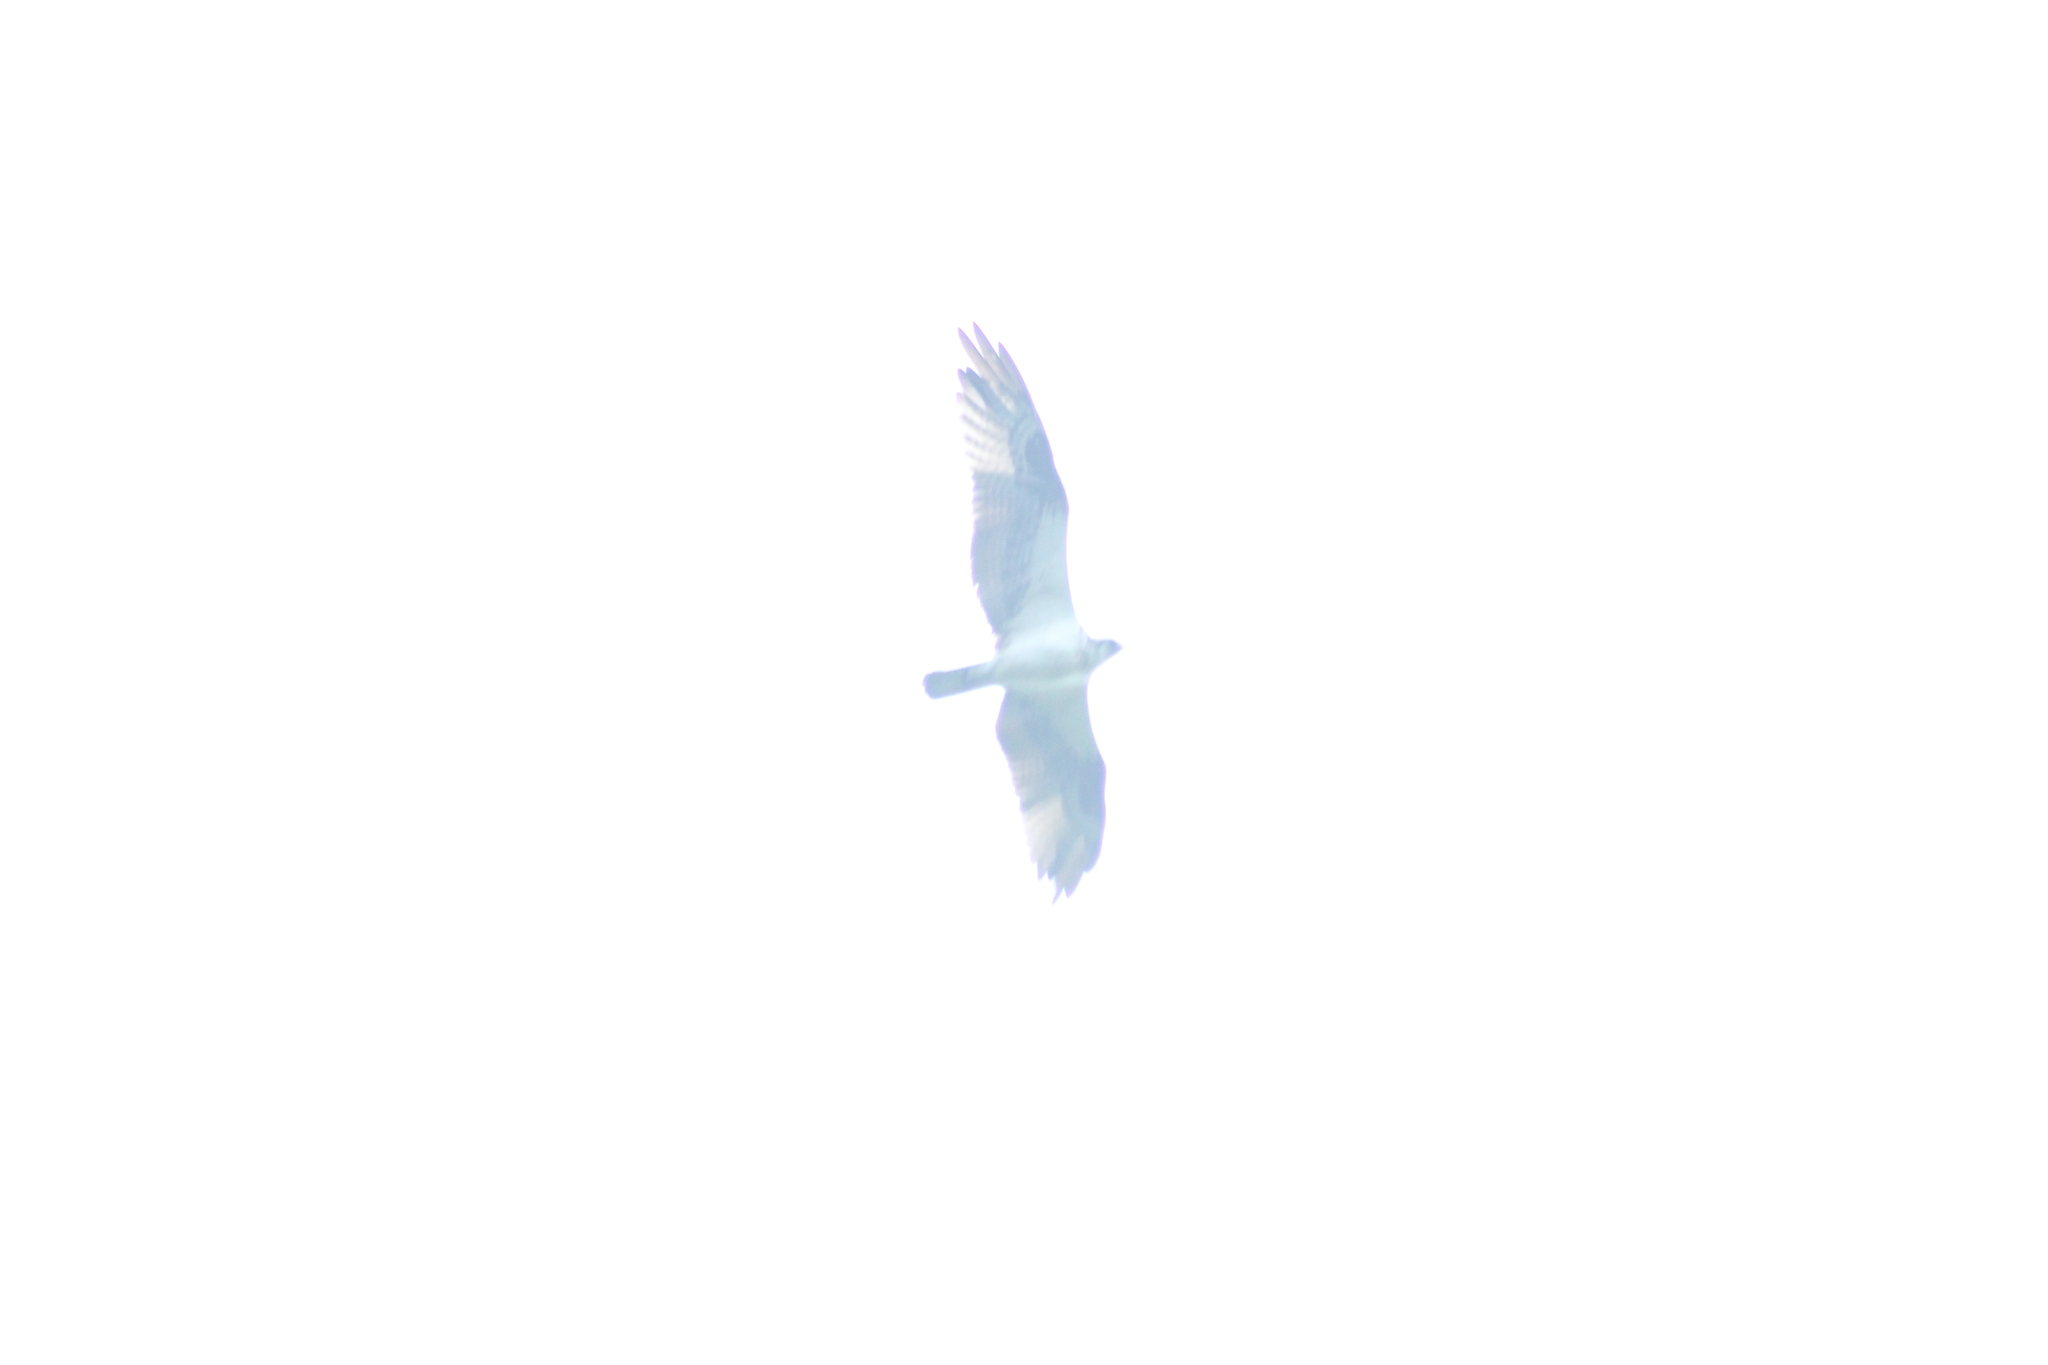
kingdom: Animalia
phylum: Chordata
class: Aves
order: Accipitriformes
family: Pandionidae
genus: Pandion
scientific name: Pandion haliaetus
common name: Osprey
